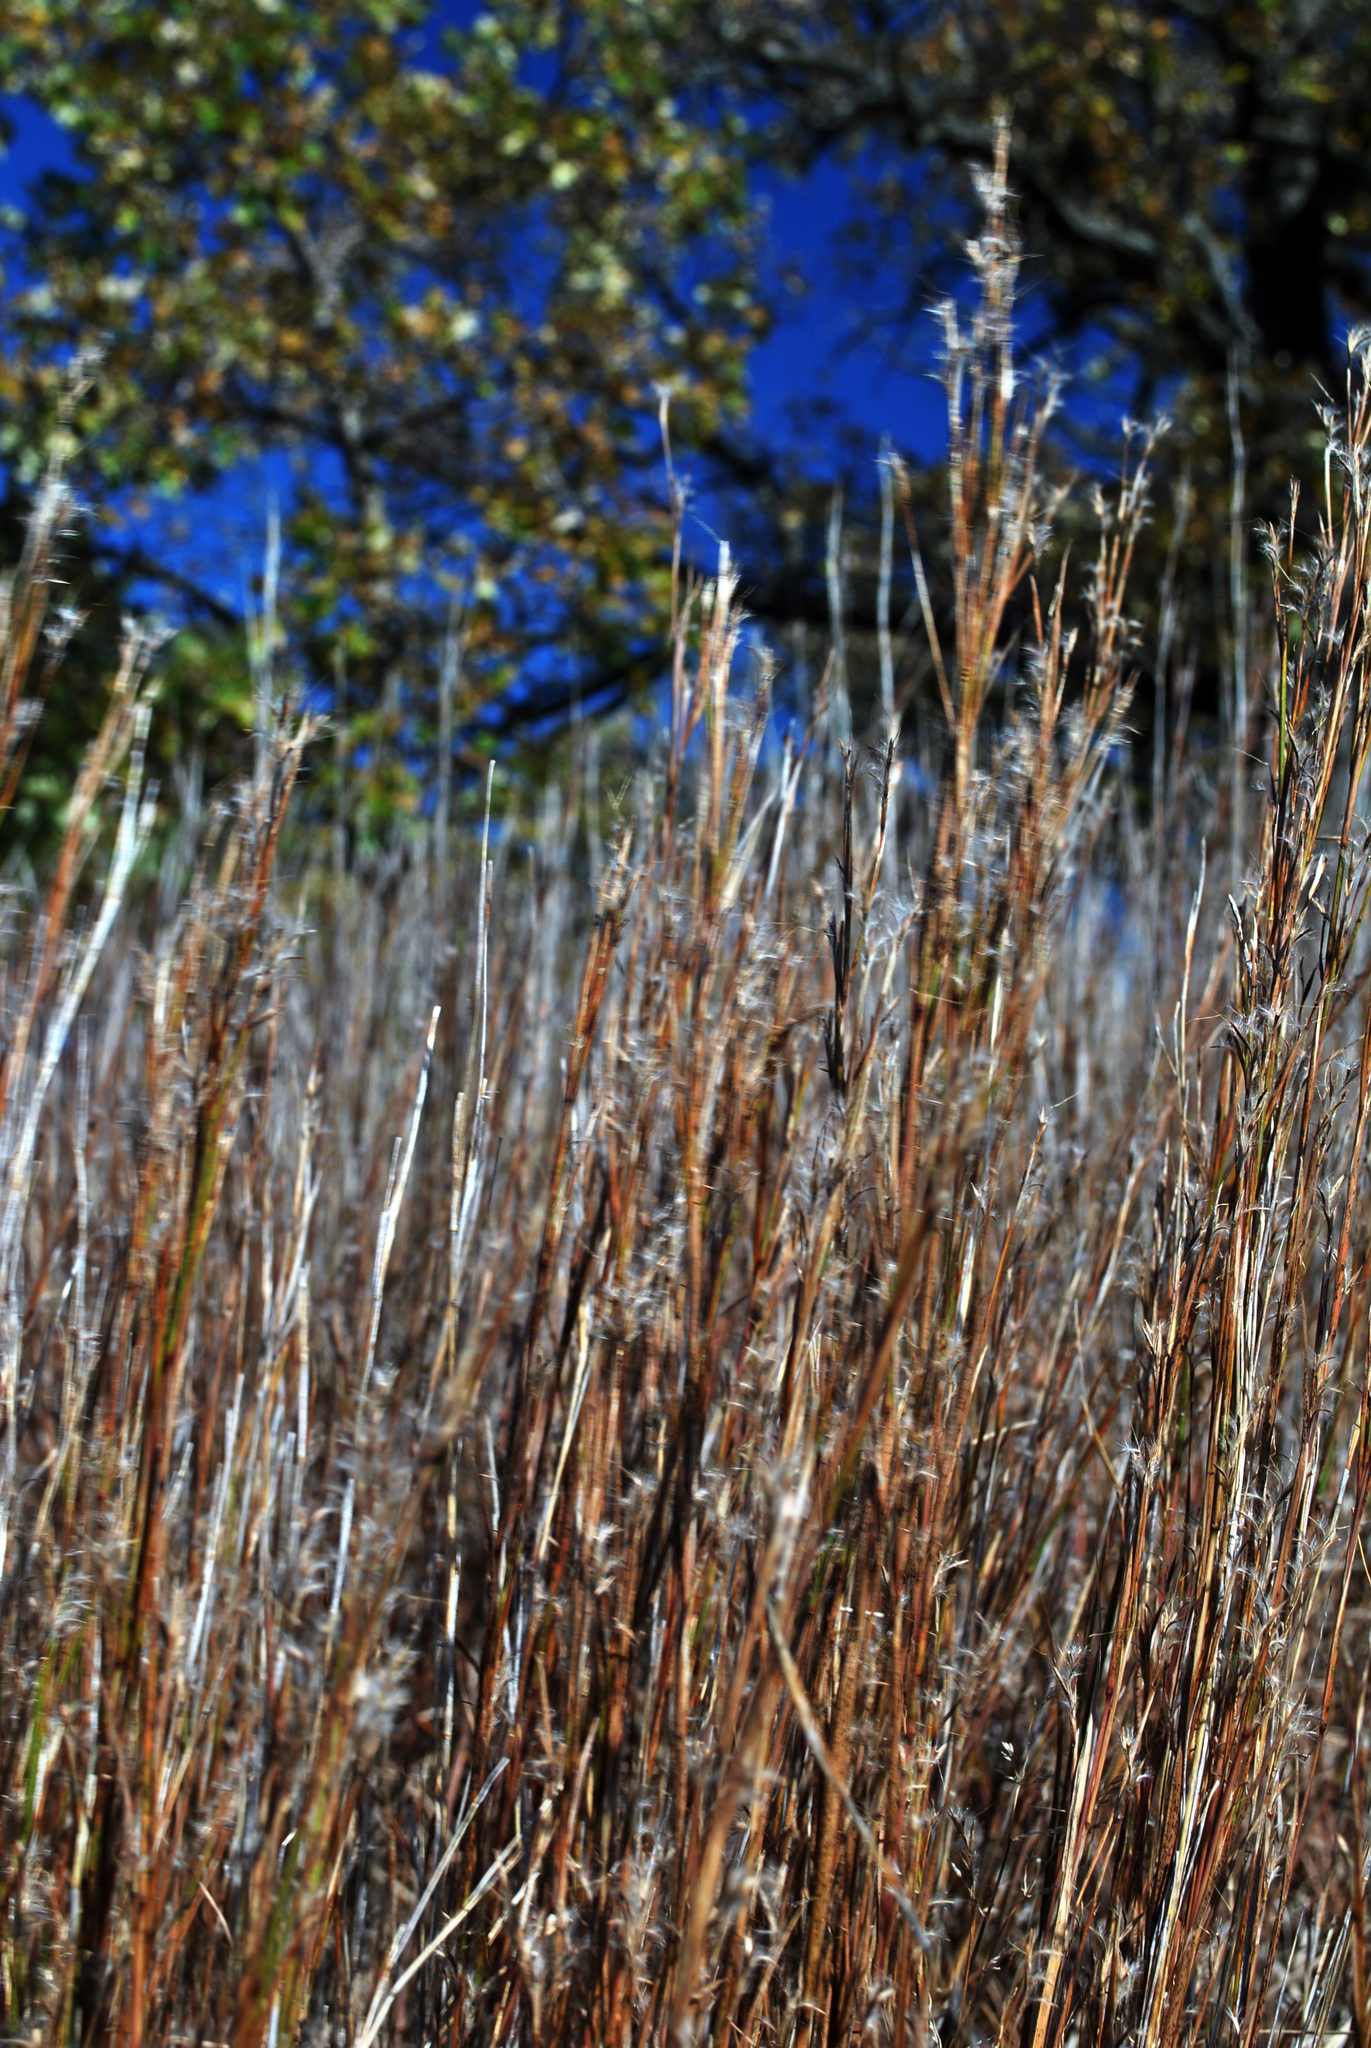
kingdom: Plantae
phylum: Tracheophyta
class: Liliopsida
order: Poales
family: Poaceae
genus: Schizachyrium
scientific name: Schizachyrium scoparium
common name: Little bluestem
